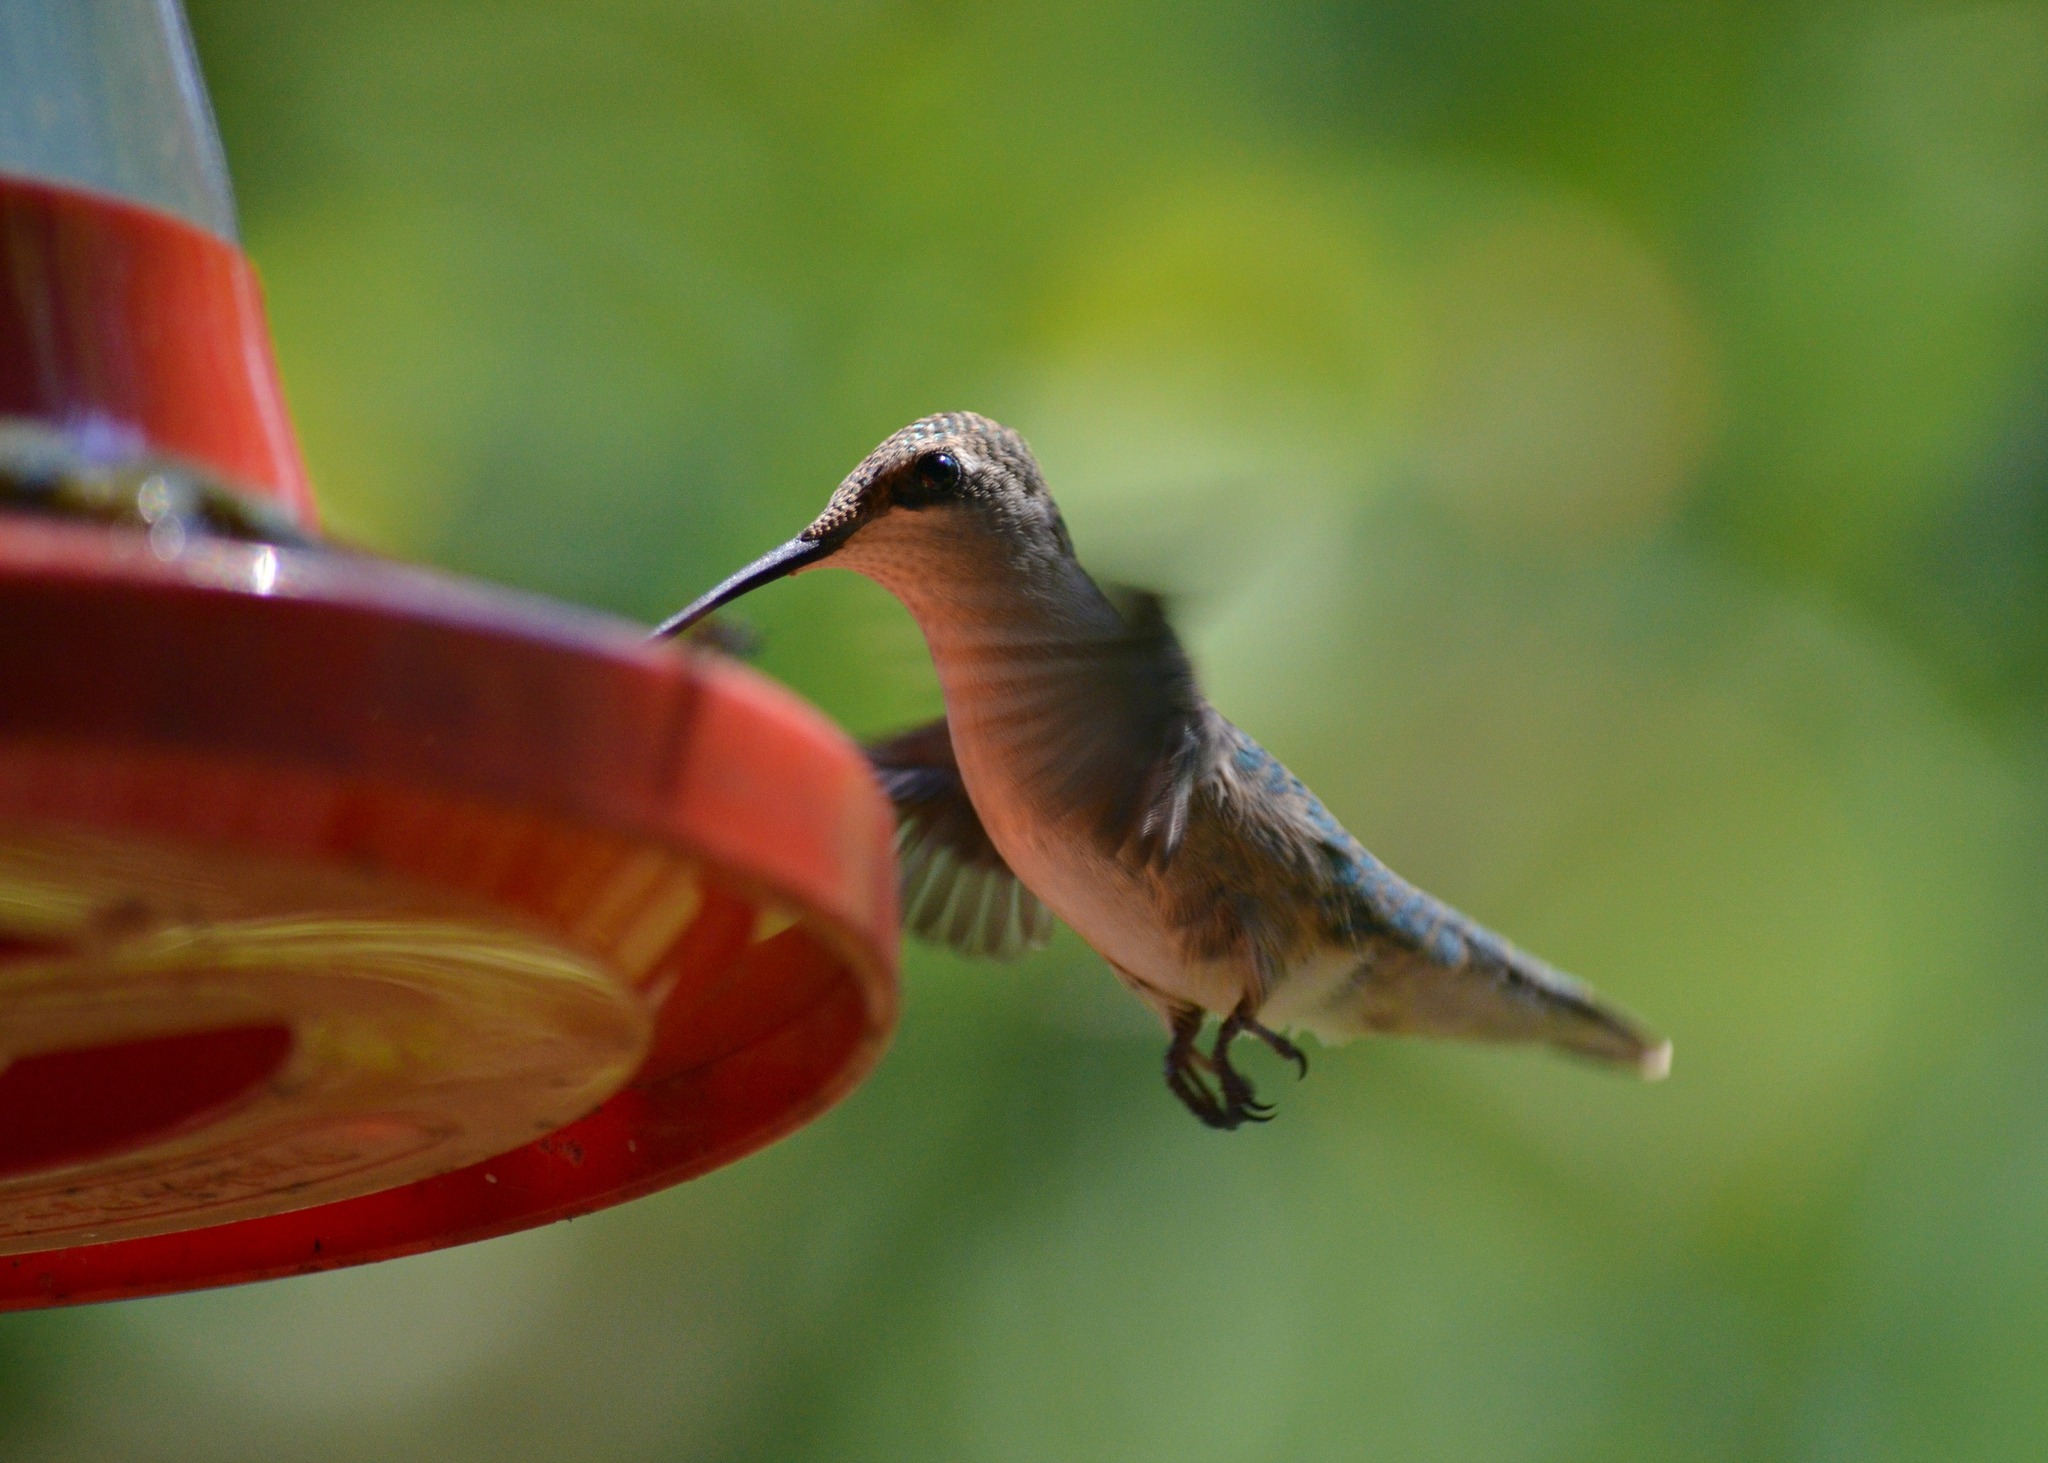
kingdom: Animalia
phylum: Chordata
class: Aves
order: Apodiformes
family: Trochilidae
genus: Archilochus
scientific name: Archilochus colubris
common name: Ruby-throated hummingbird
